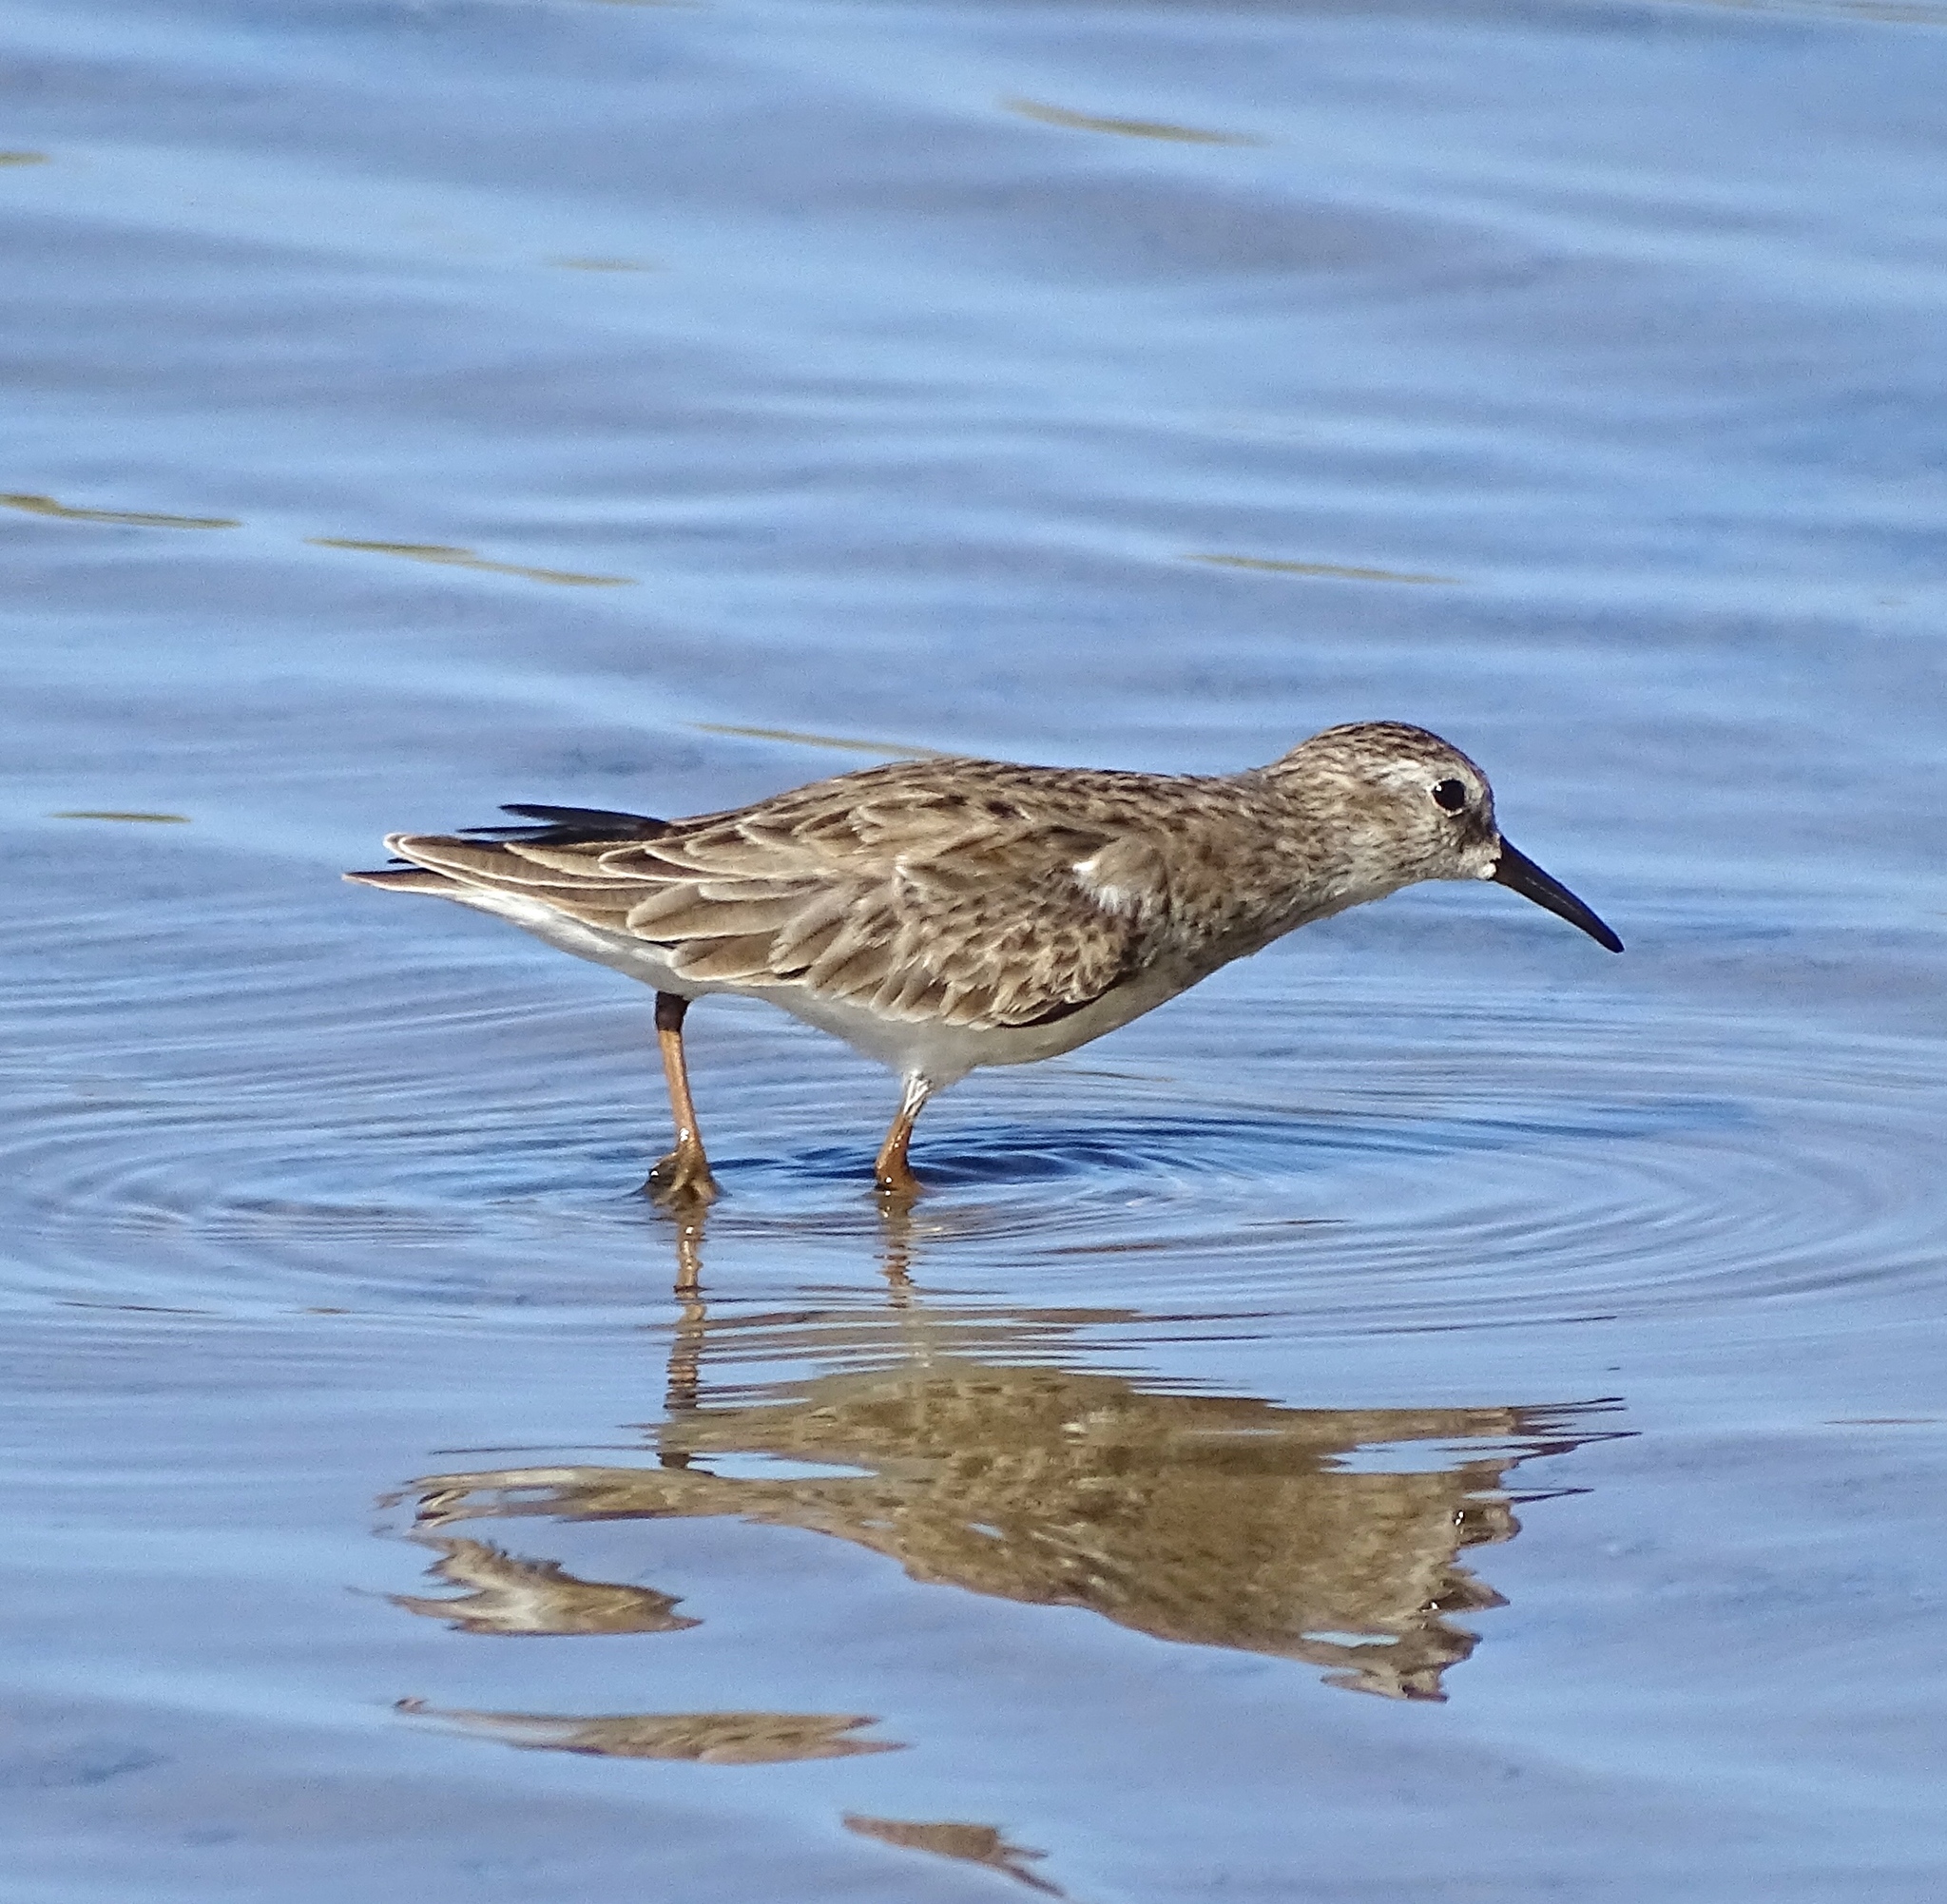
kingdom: Animalia
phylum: Chordata
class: Aves
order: Charadriiformes
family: Scolopacidae
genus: Calidris
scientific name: Calidris minutilla
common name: Least sandpiper
